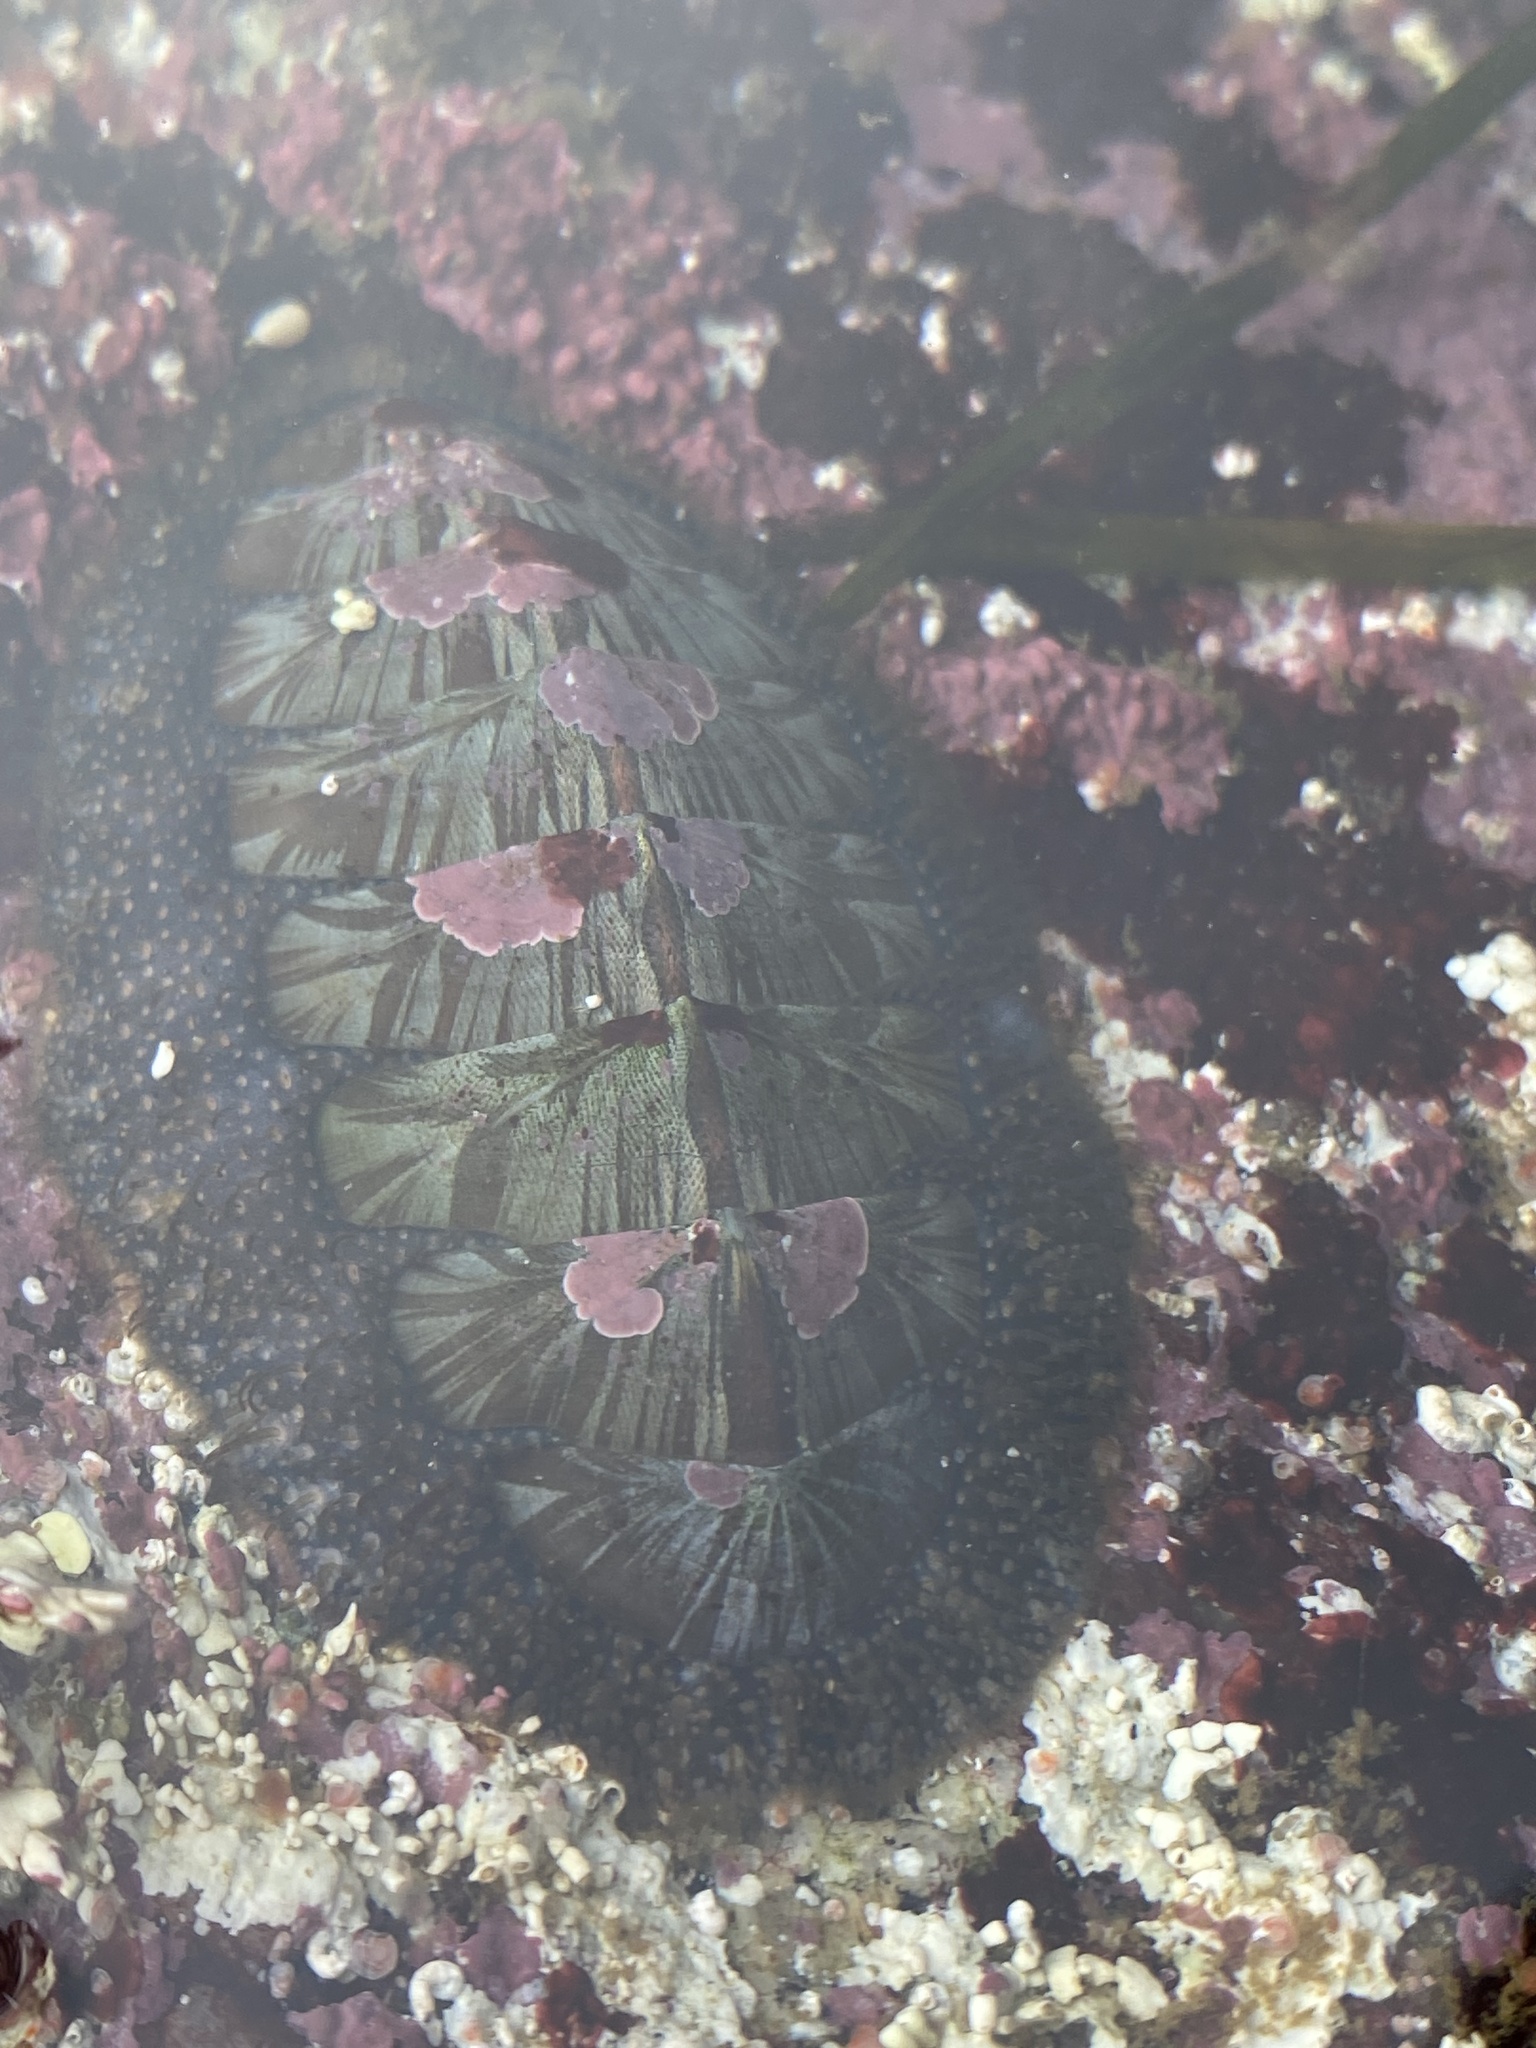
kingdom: Animalia
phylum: Mollusca
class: Polyplacophora
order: Chitonida
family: Mopaliidae
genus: Mopalia
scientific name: Mopalia lignosa
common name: Woody chiton
